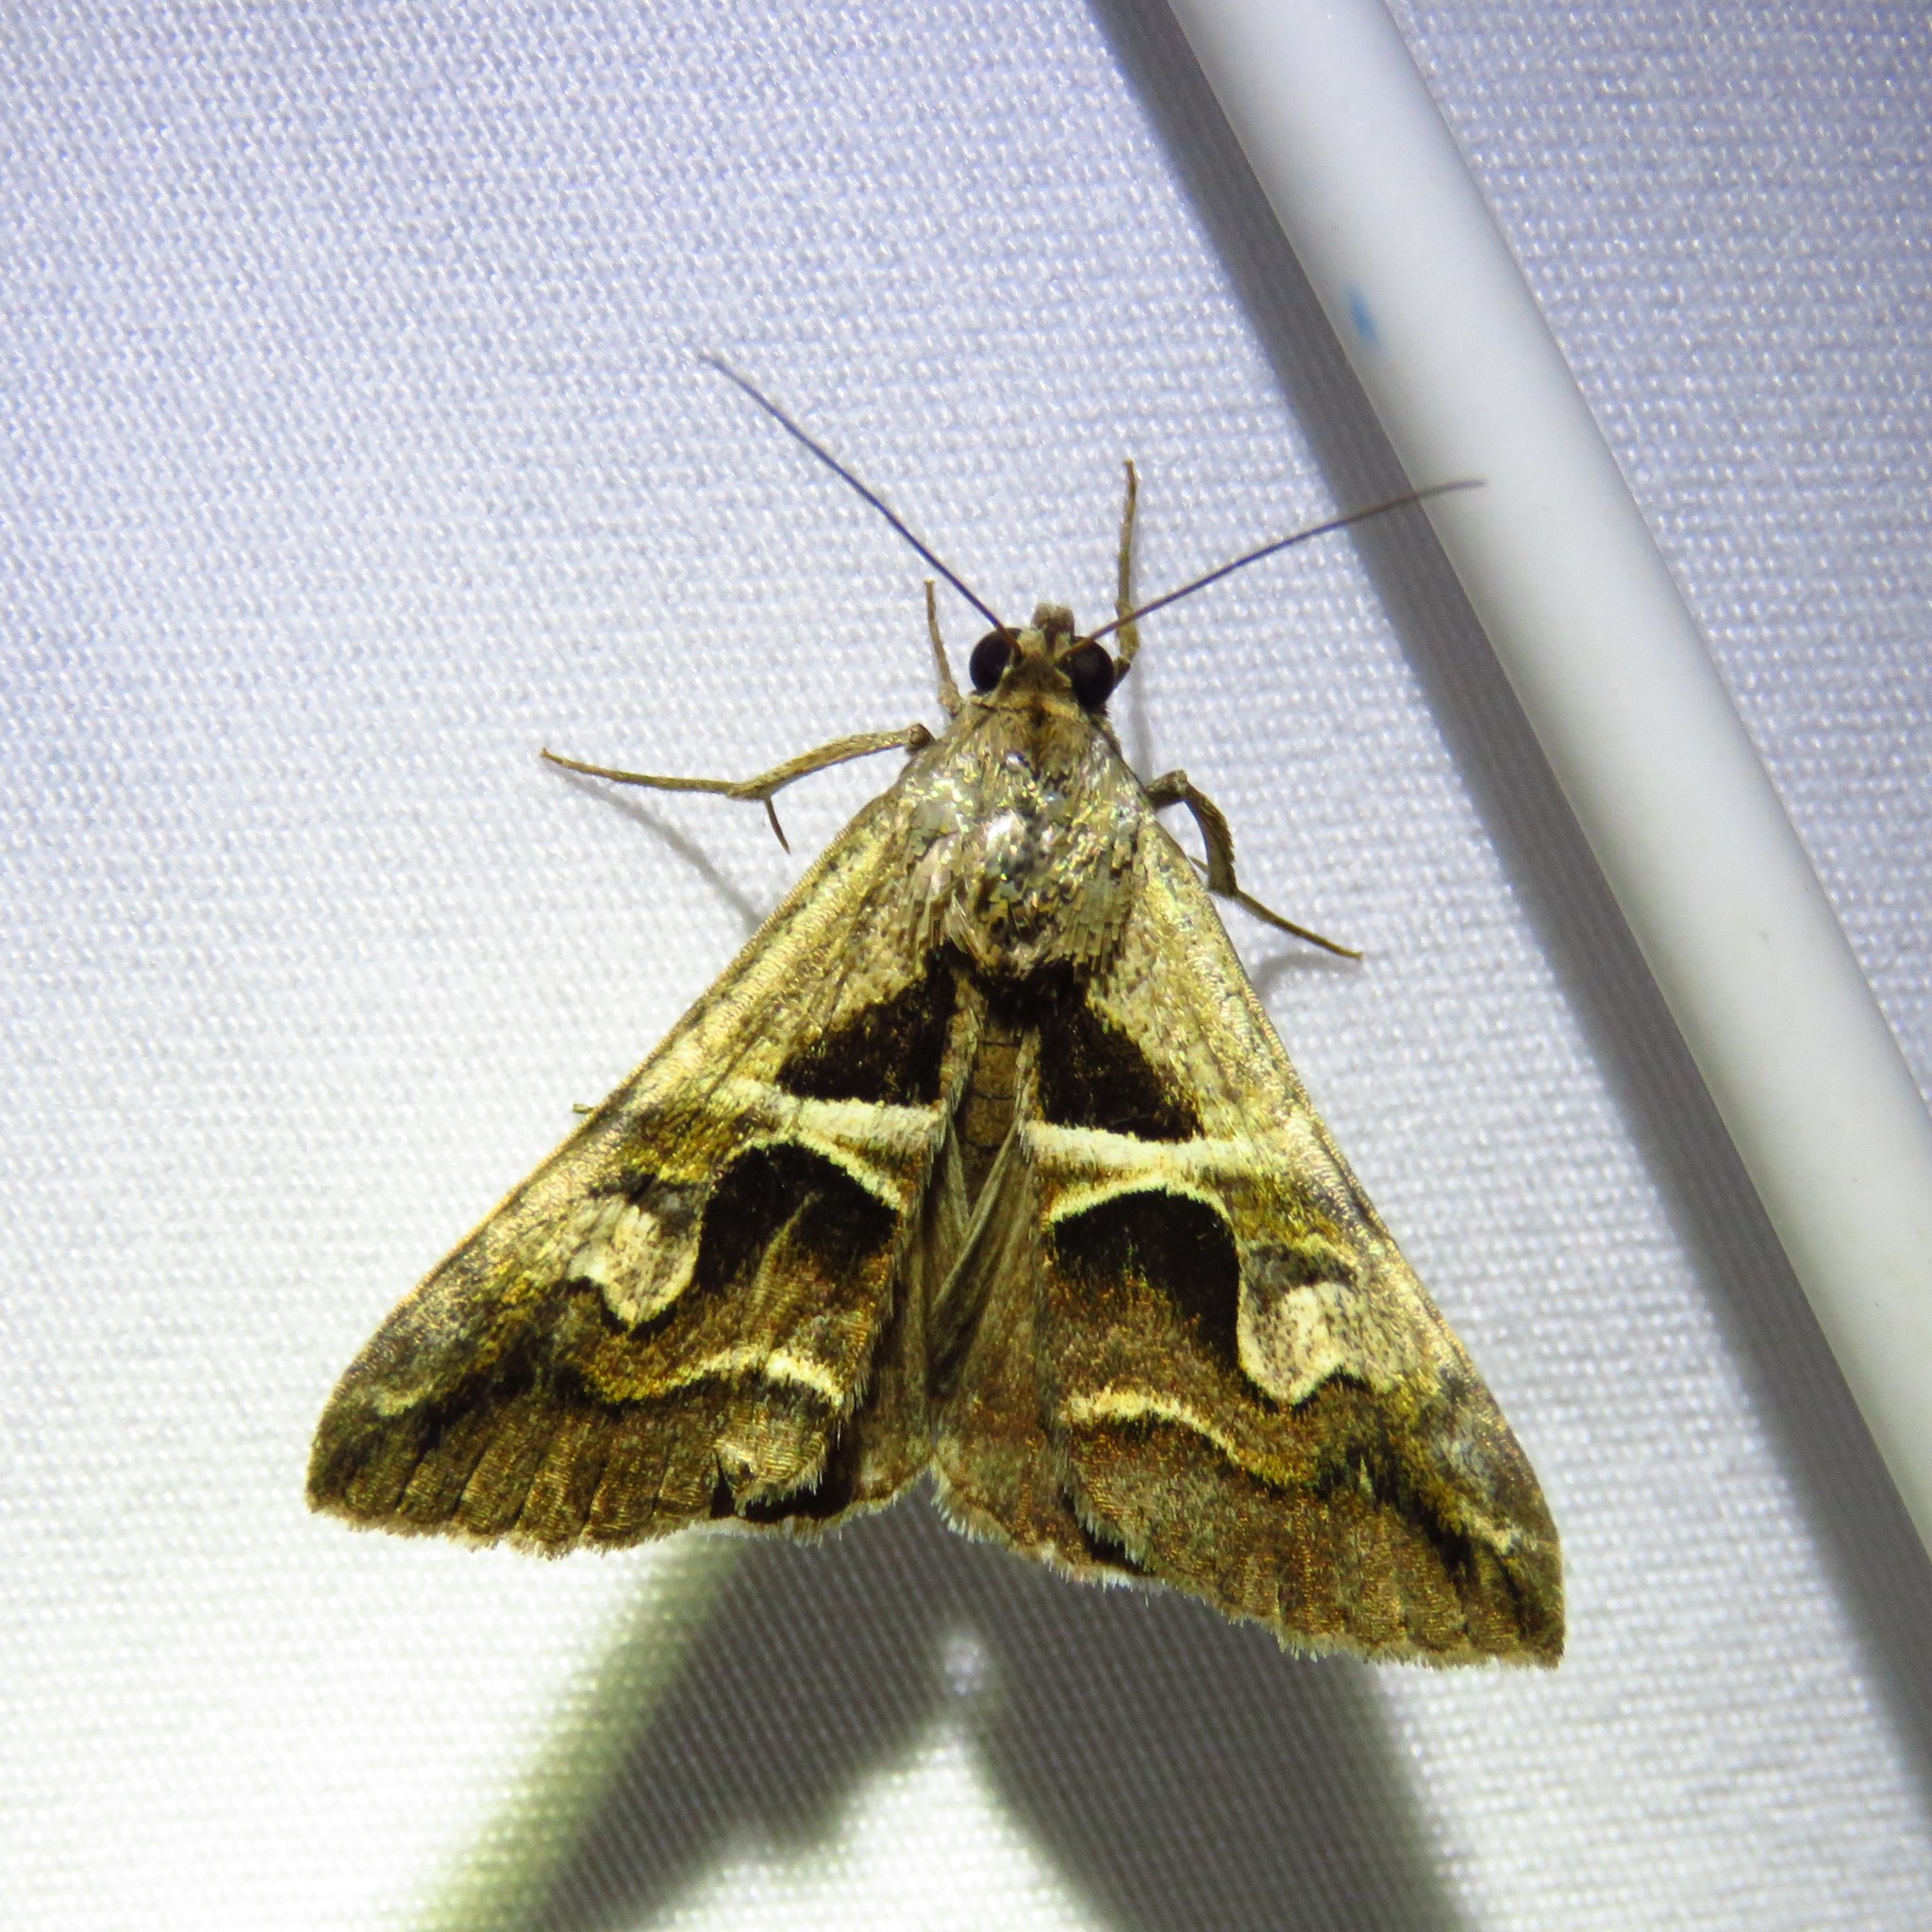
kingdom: Animalia
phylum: Arthropoda
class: Insecta
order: Lepidoptera
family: Erebidae
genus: Melipotis
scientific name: Melipotis cellaris
